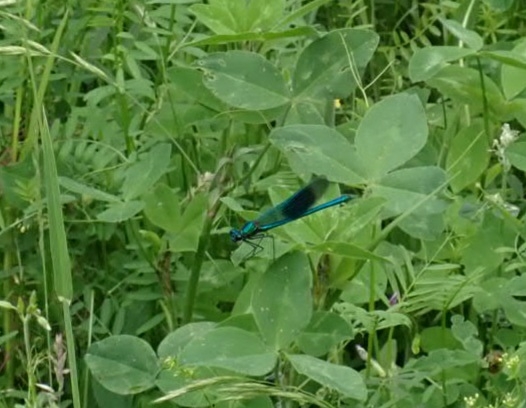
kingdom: Animalia
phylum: Arthropoda
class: Insecta
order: Odonata
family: Calopterygidae
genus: Calopteryx
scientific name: Calopteryx splendens
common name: Banded demoiselle
